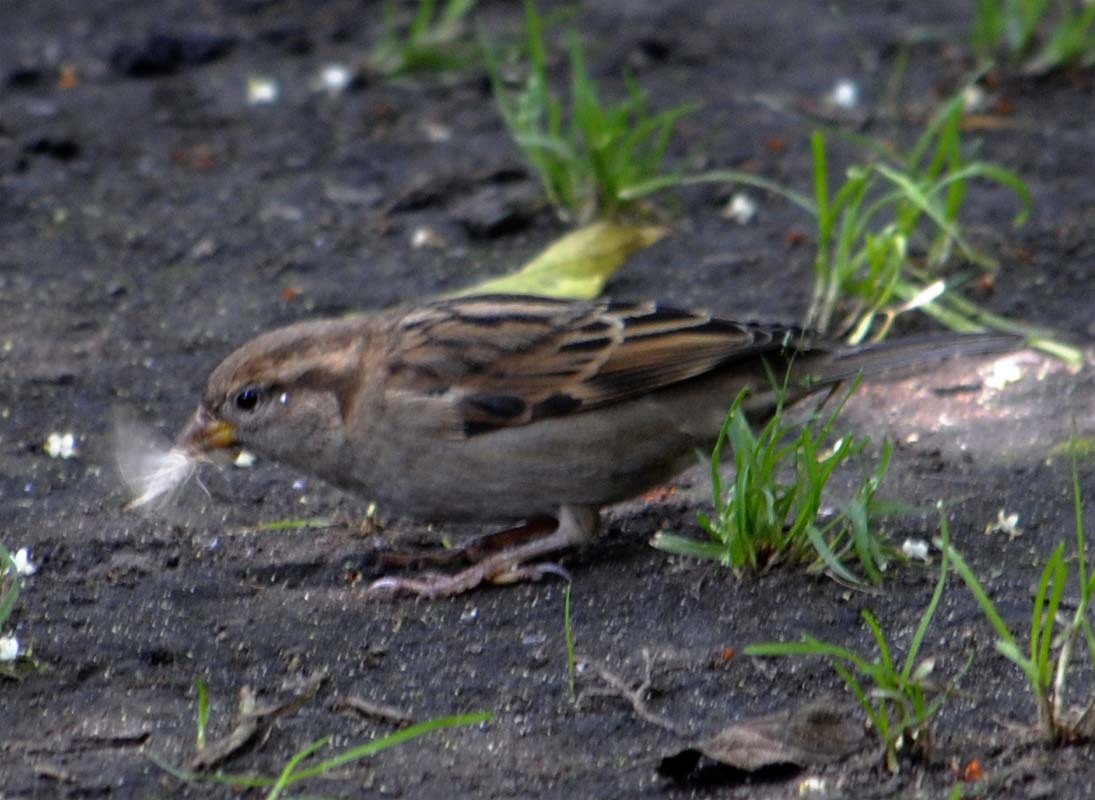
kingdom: Animalia
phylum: Chordata
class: Aves
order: Passeriformes
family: Passeridae
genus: Passer
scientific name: Passer domesticus
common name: House sparrow
